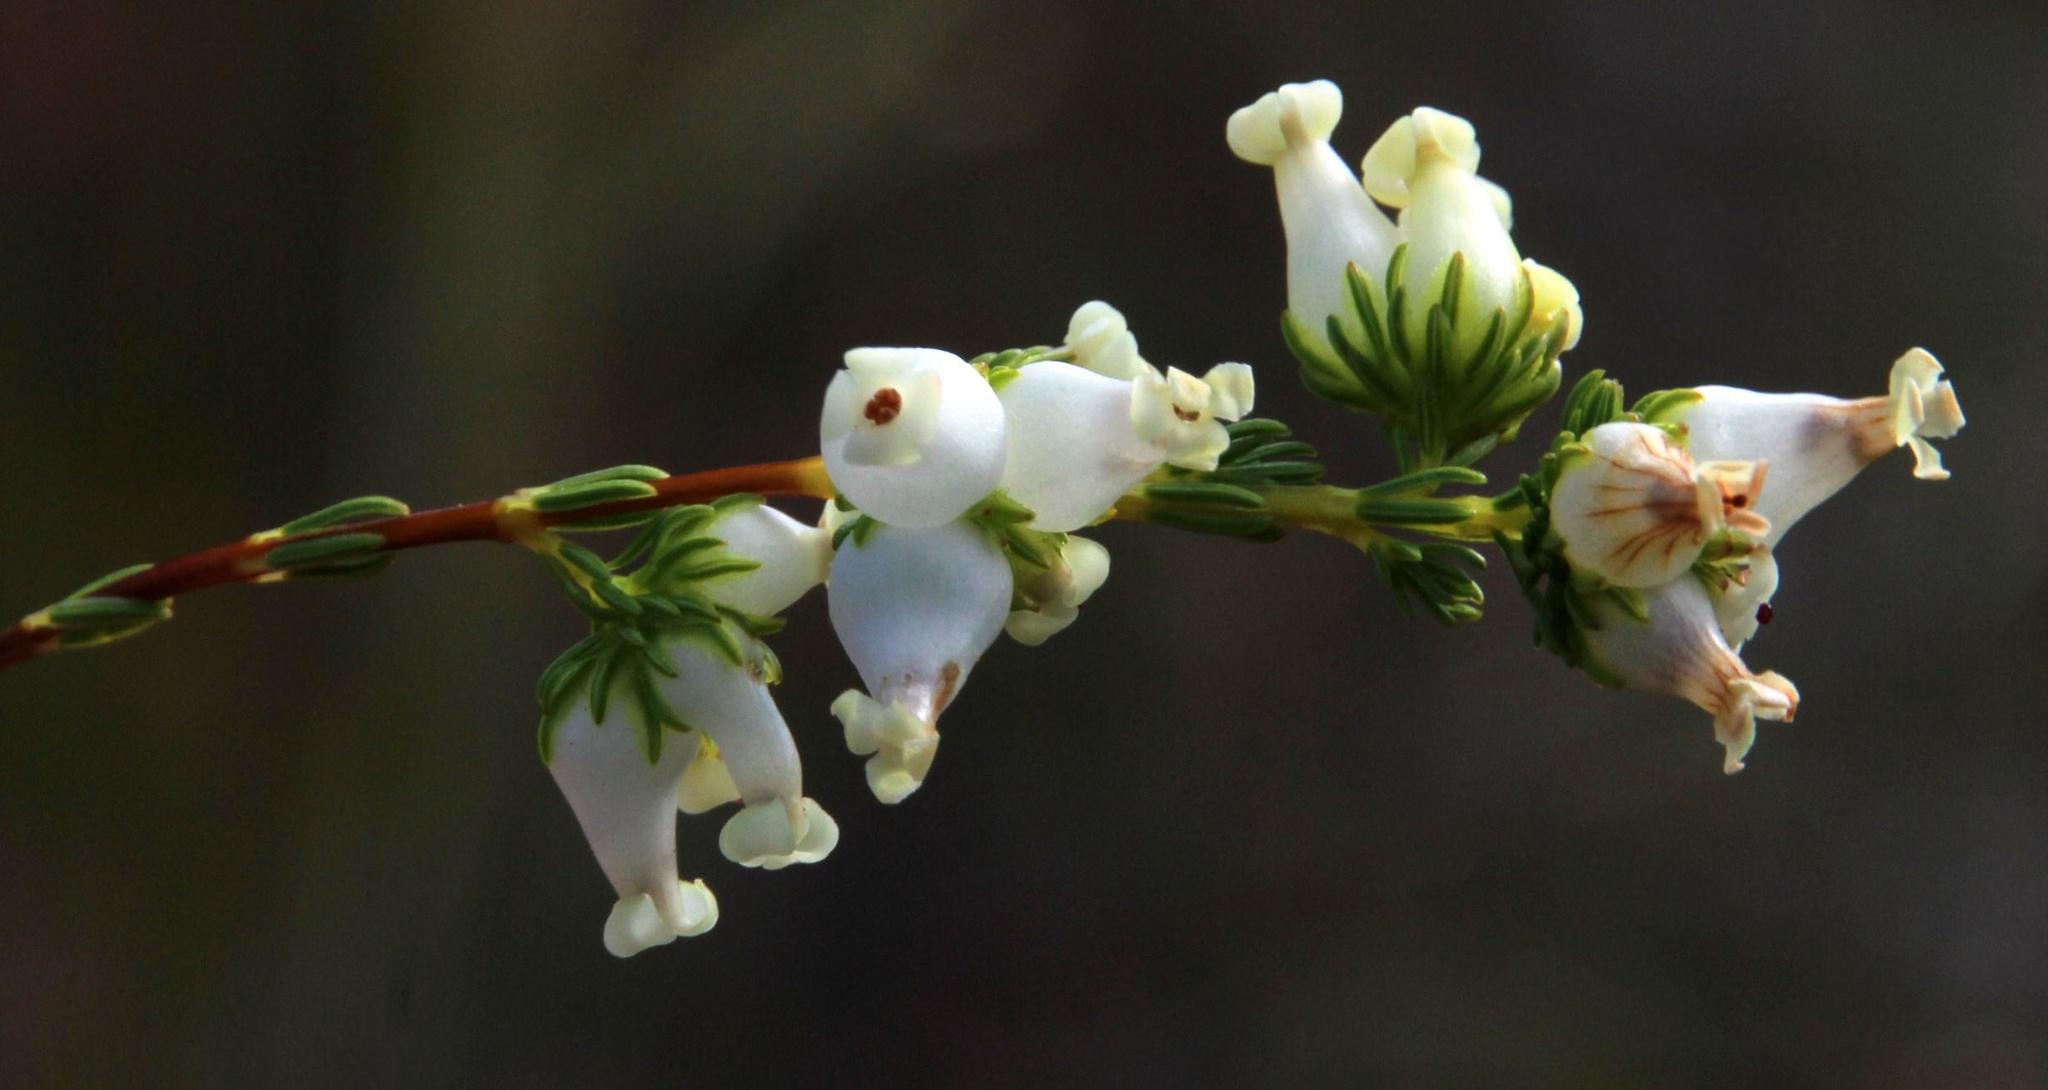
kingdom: Plantae
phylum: Tracheophyta
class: Magnoliopsida
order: Ericales
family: Ericaceae
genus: Erica
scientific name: Erica daphniflora
